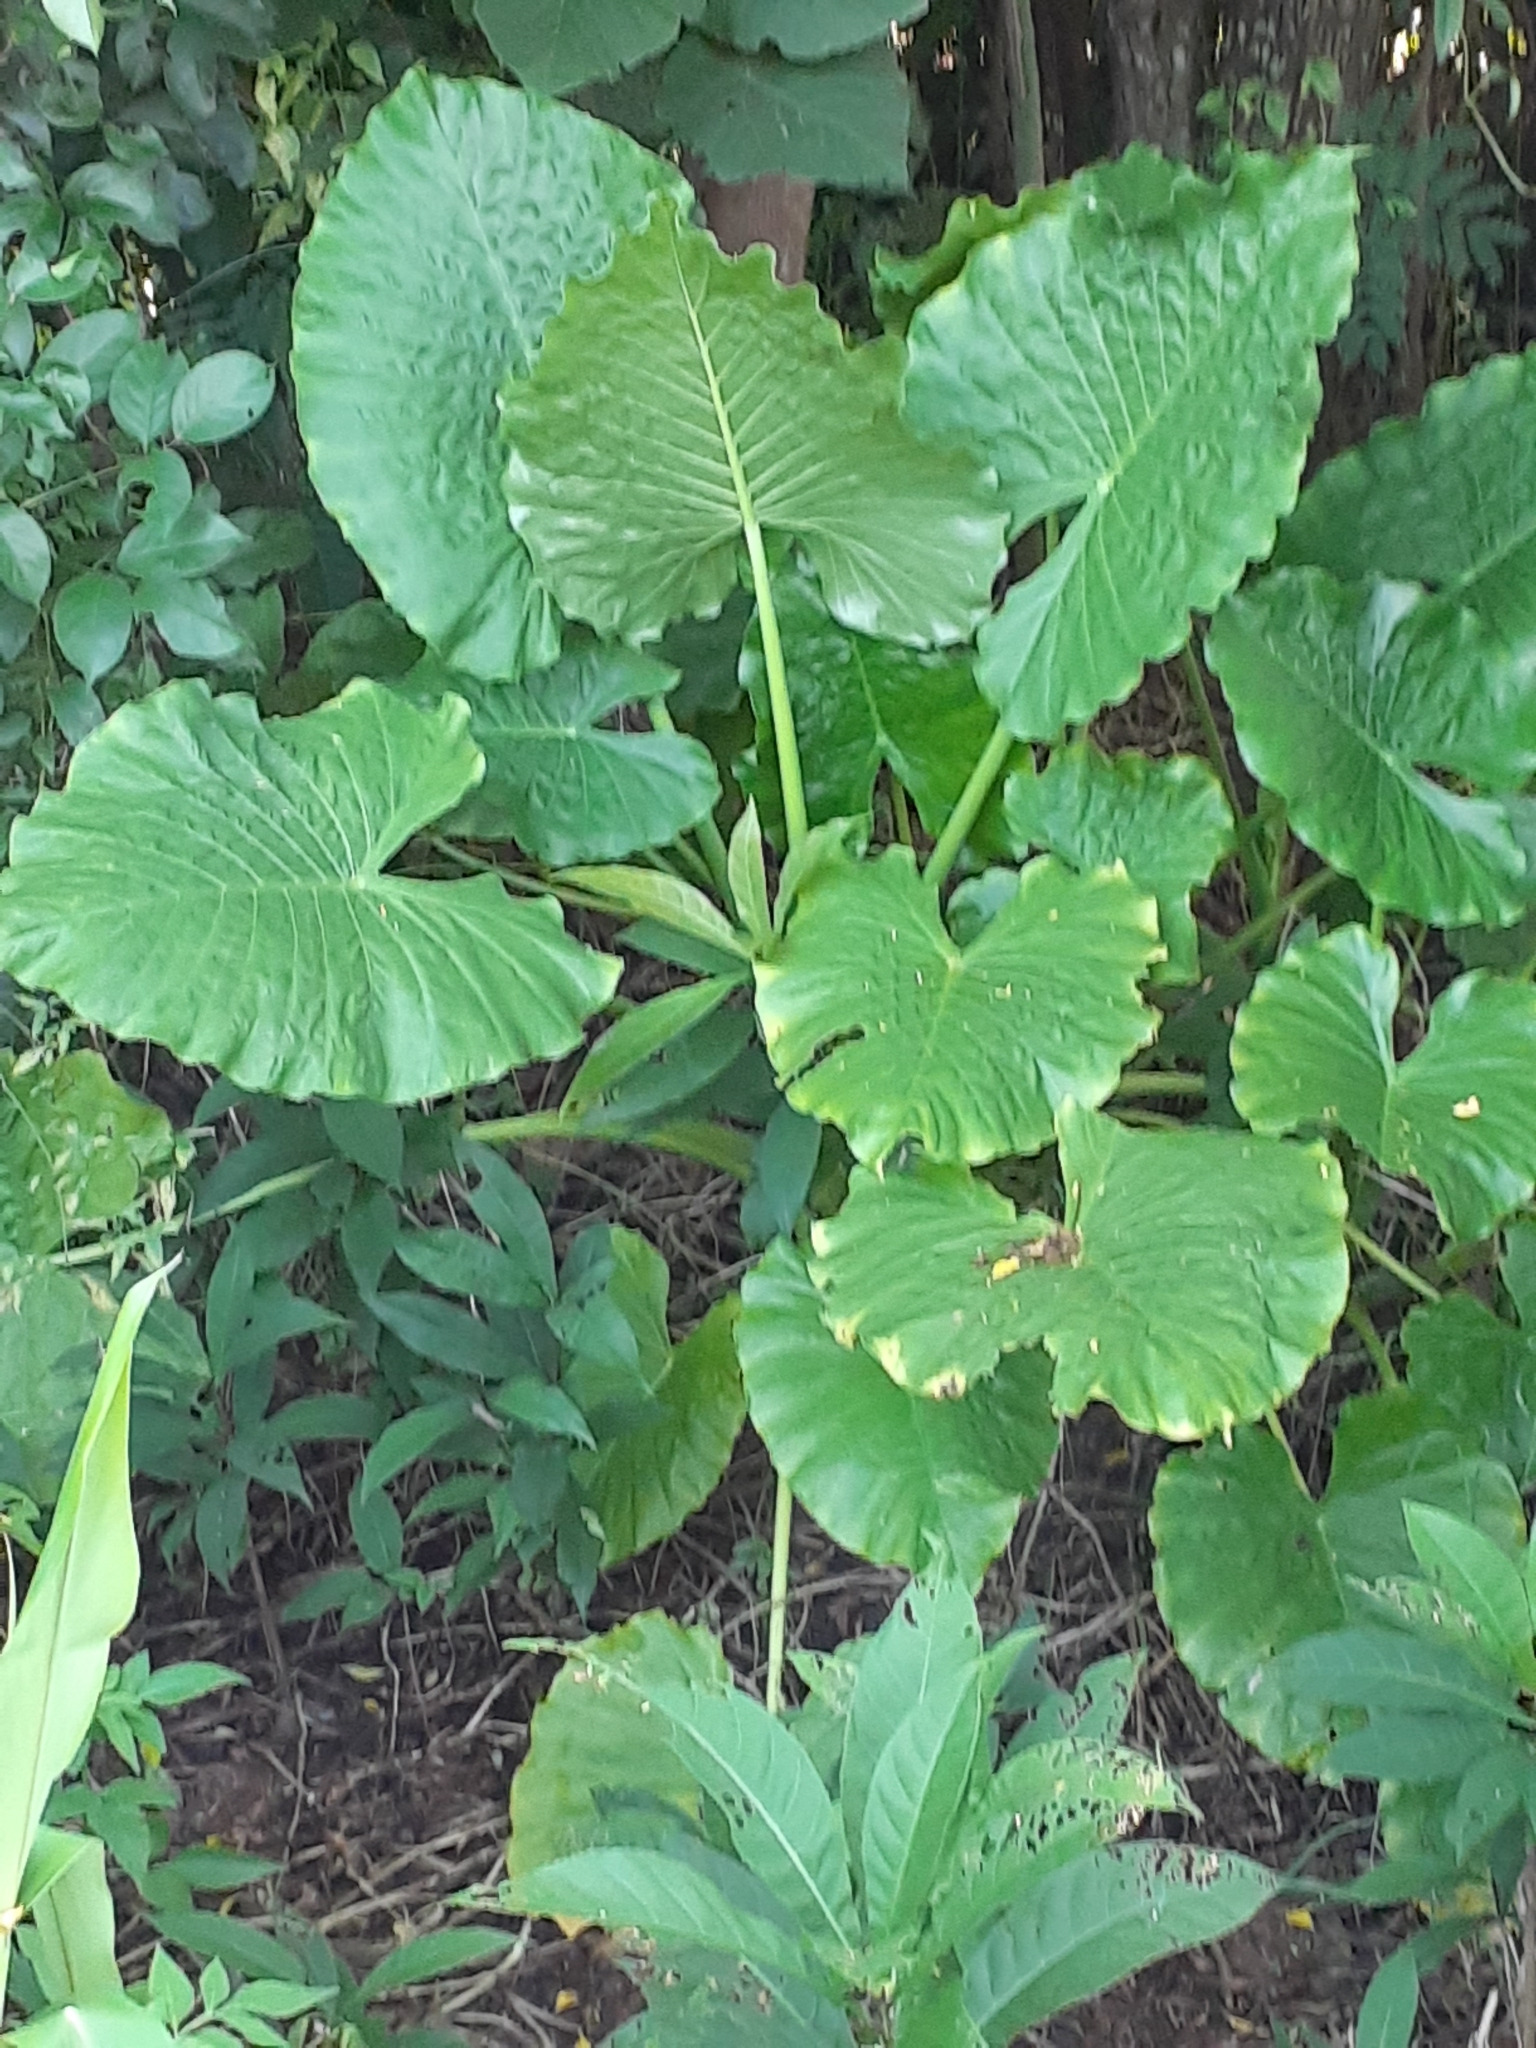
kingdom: Plantae
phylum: Tracheophyta
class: Liliopsida
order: Alismatales
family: Araceae
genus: Alocasia
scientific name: Alocasia odora
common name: Asian taro
